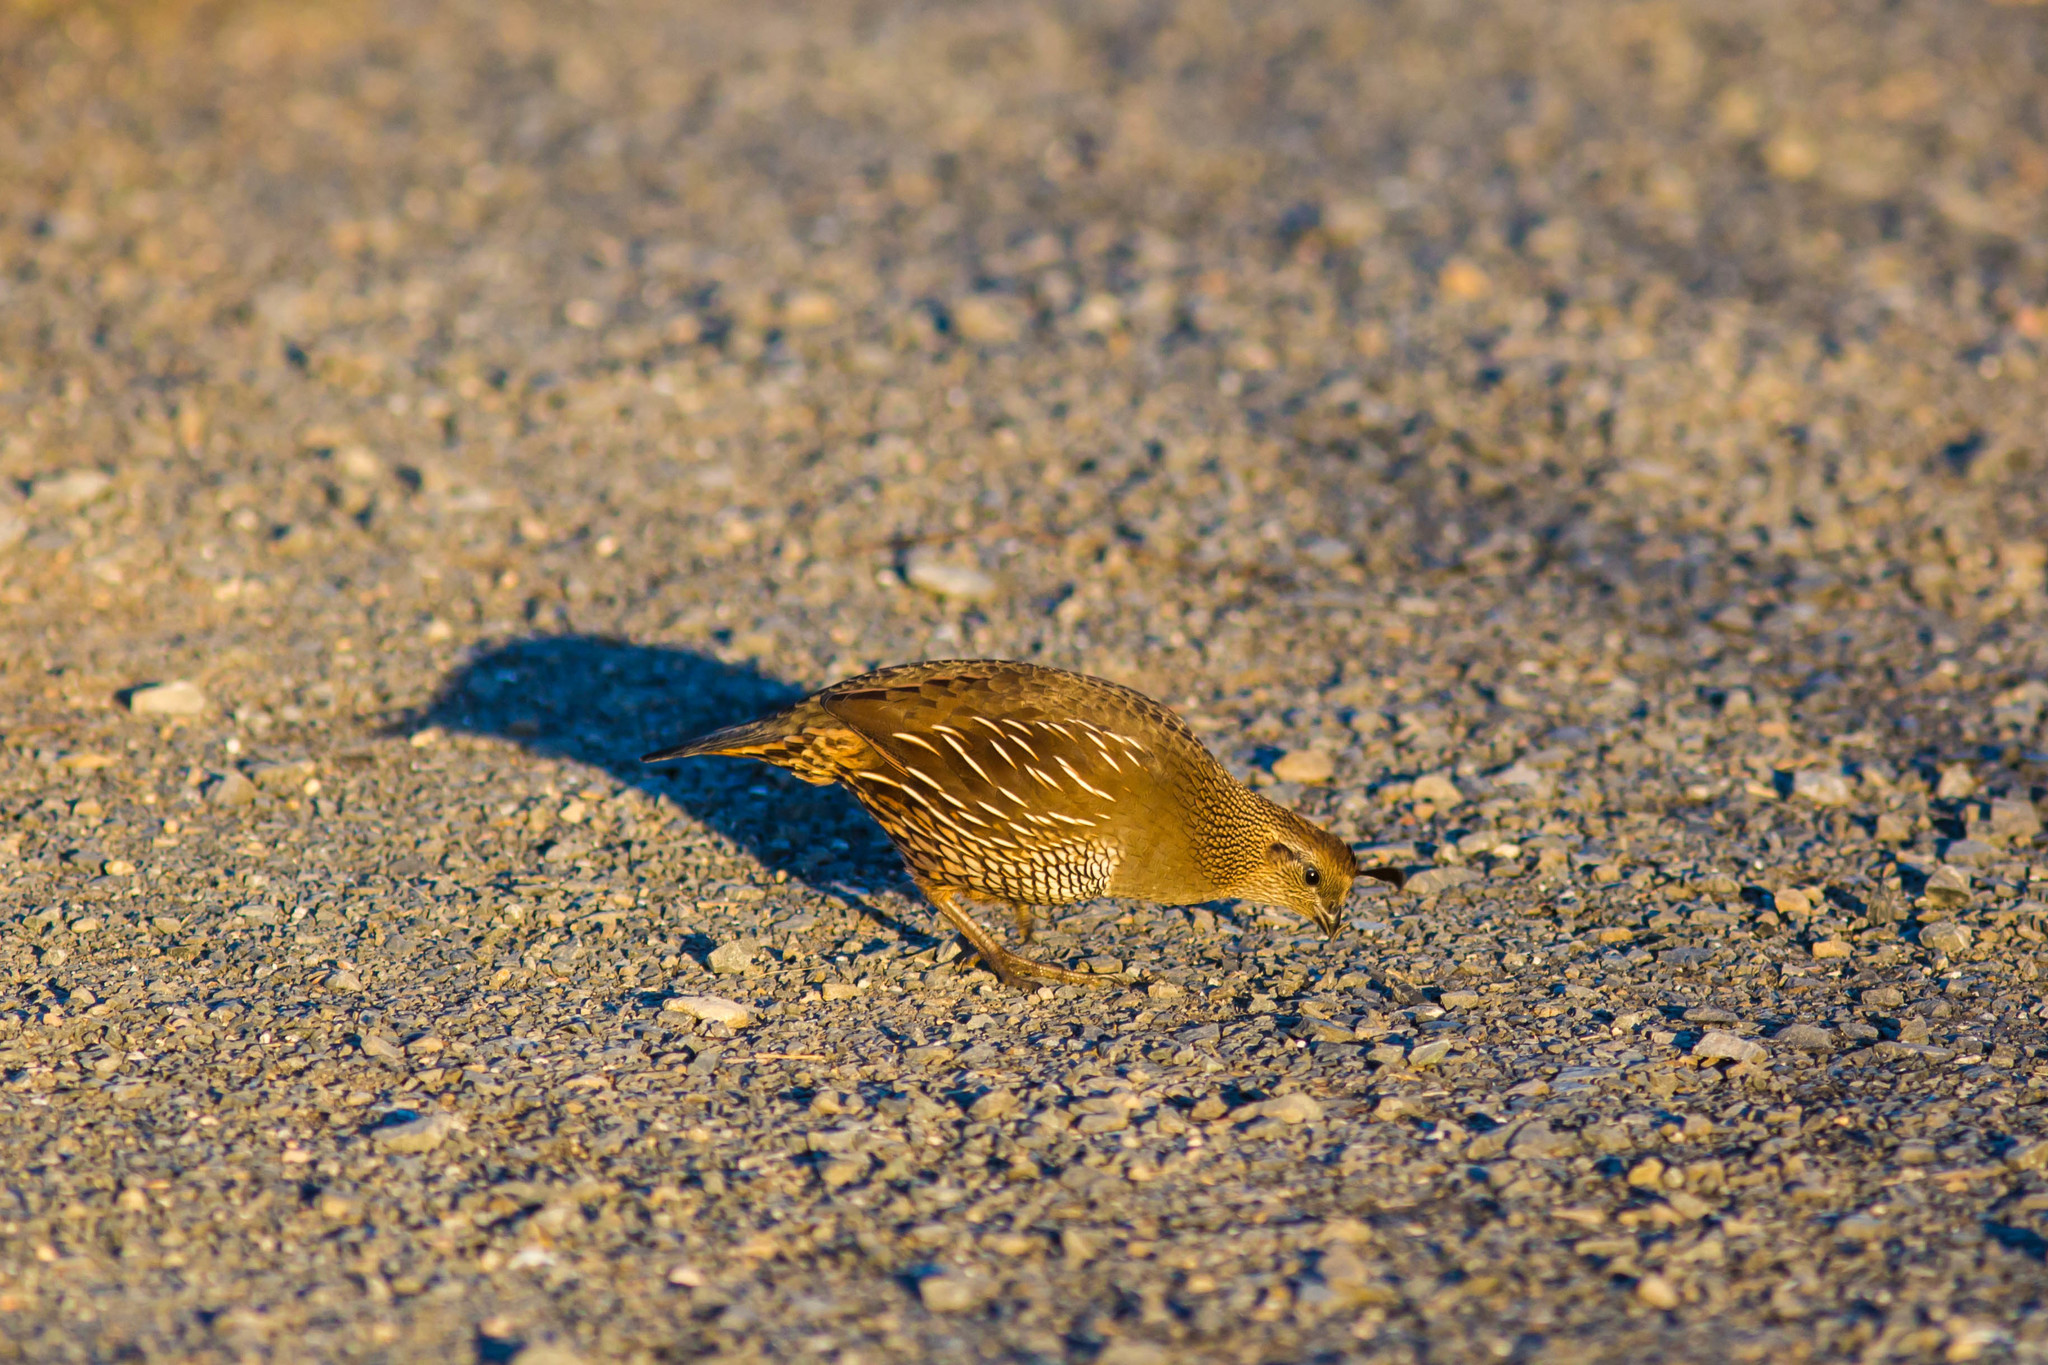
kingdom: Animalia
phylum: Chordata
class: Aves
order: Galliformes
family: Odontophoridae
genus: Callipepla
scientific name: Callipepla californica
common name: California quail
